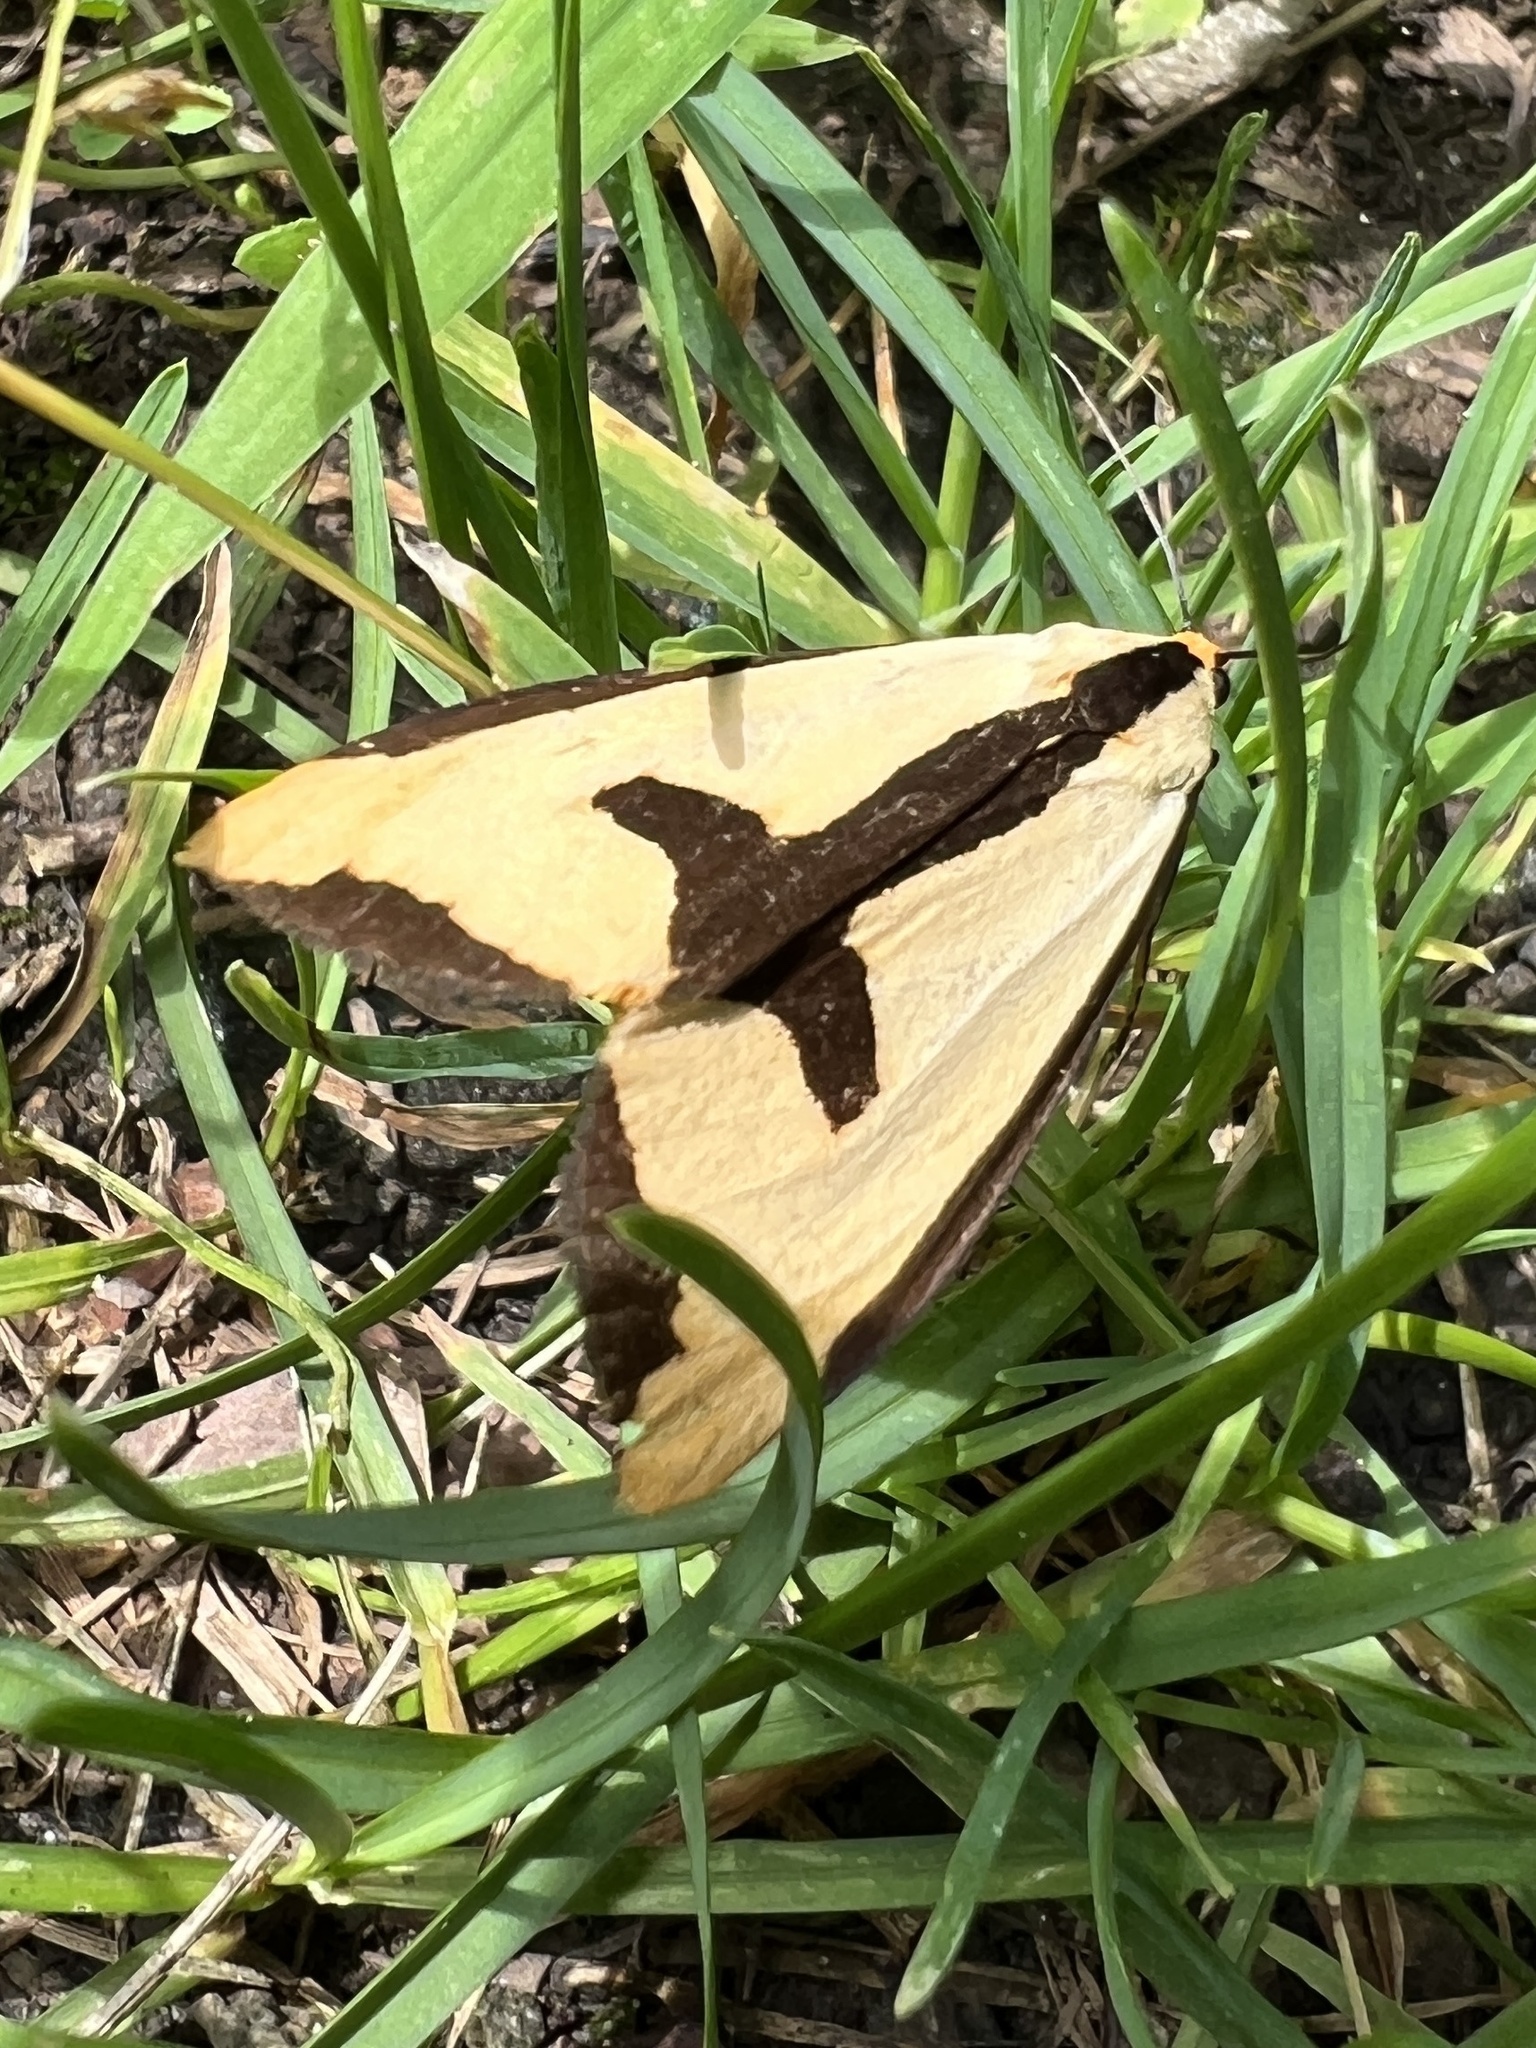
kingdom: Animalia
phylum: Arthropoda
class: Insecta
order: Lepidoptera
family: Erebidae
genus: Haploa
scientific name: Haploa clymene
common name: Clymene moth
